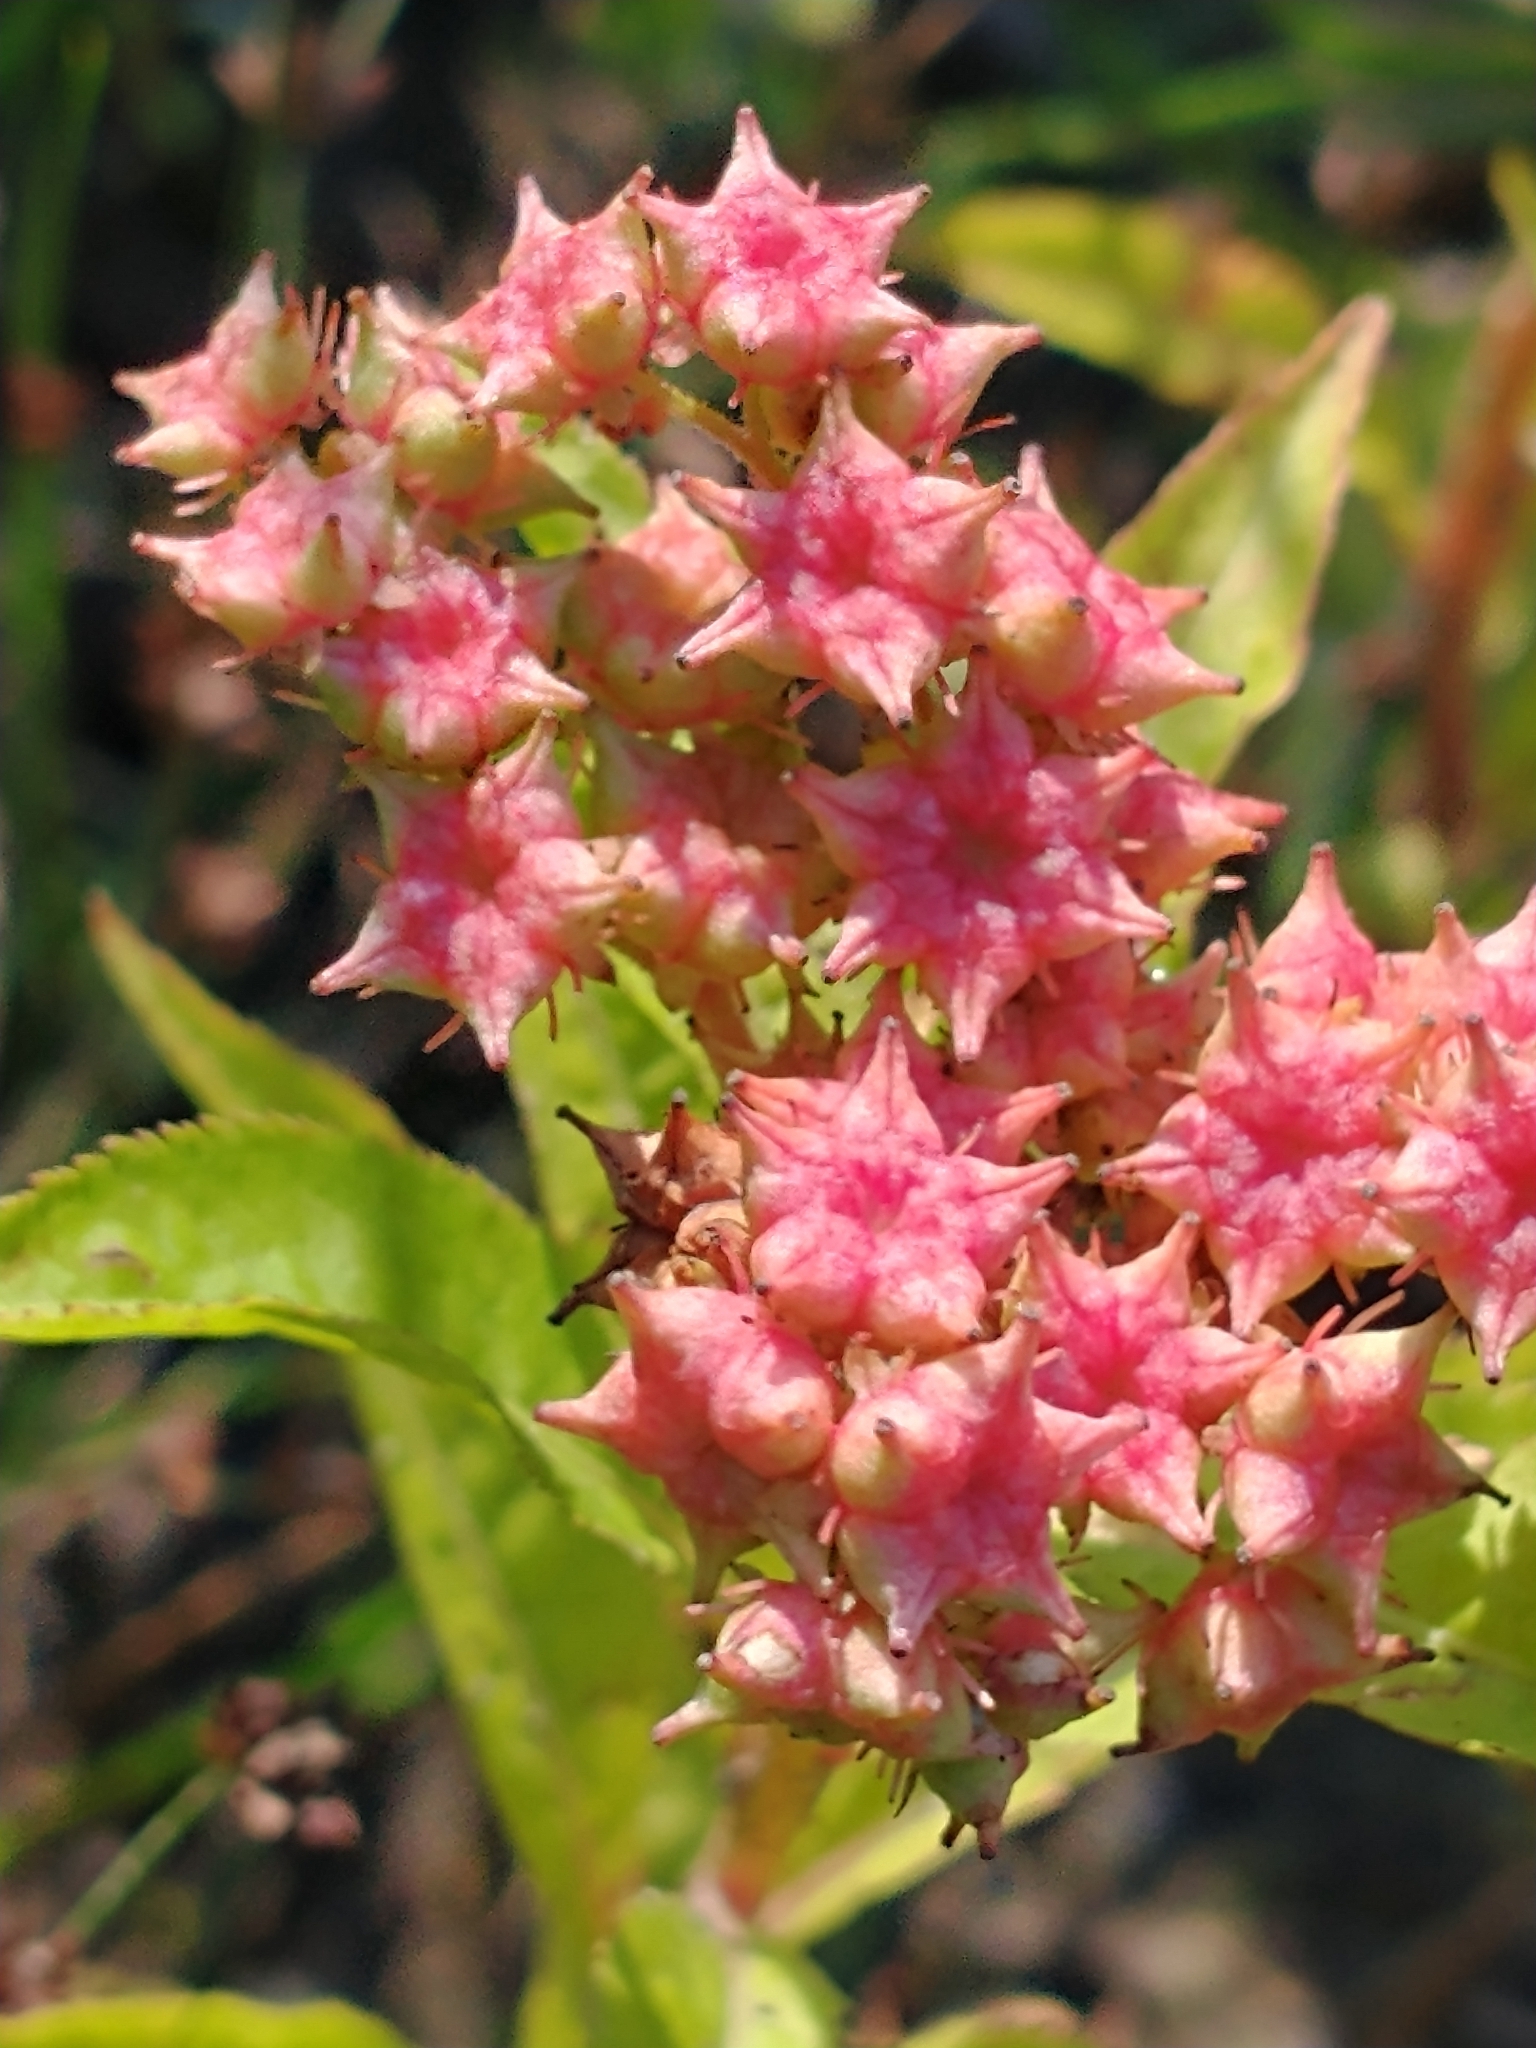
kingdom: Plantae
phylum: Tracheophyta
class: Magnoliopsida
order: Saxifragales
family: Penthoraceae
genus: Penthorum
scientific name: Penthorum sedoides
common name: Ditch stonecrop
